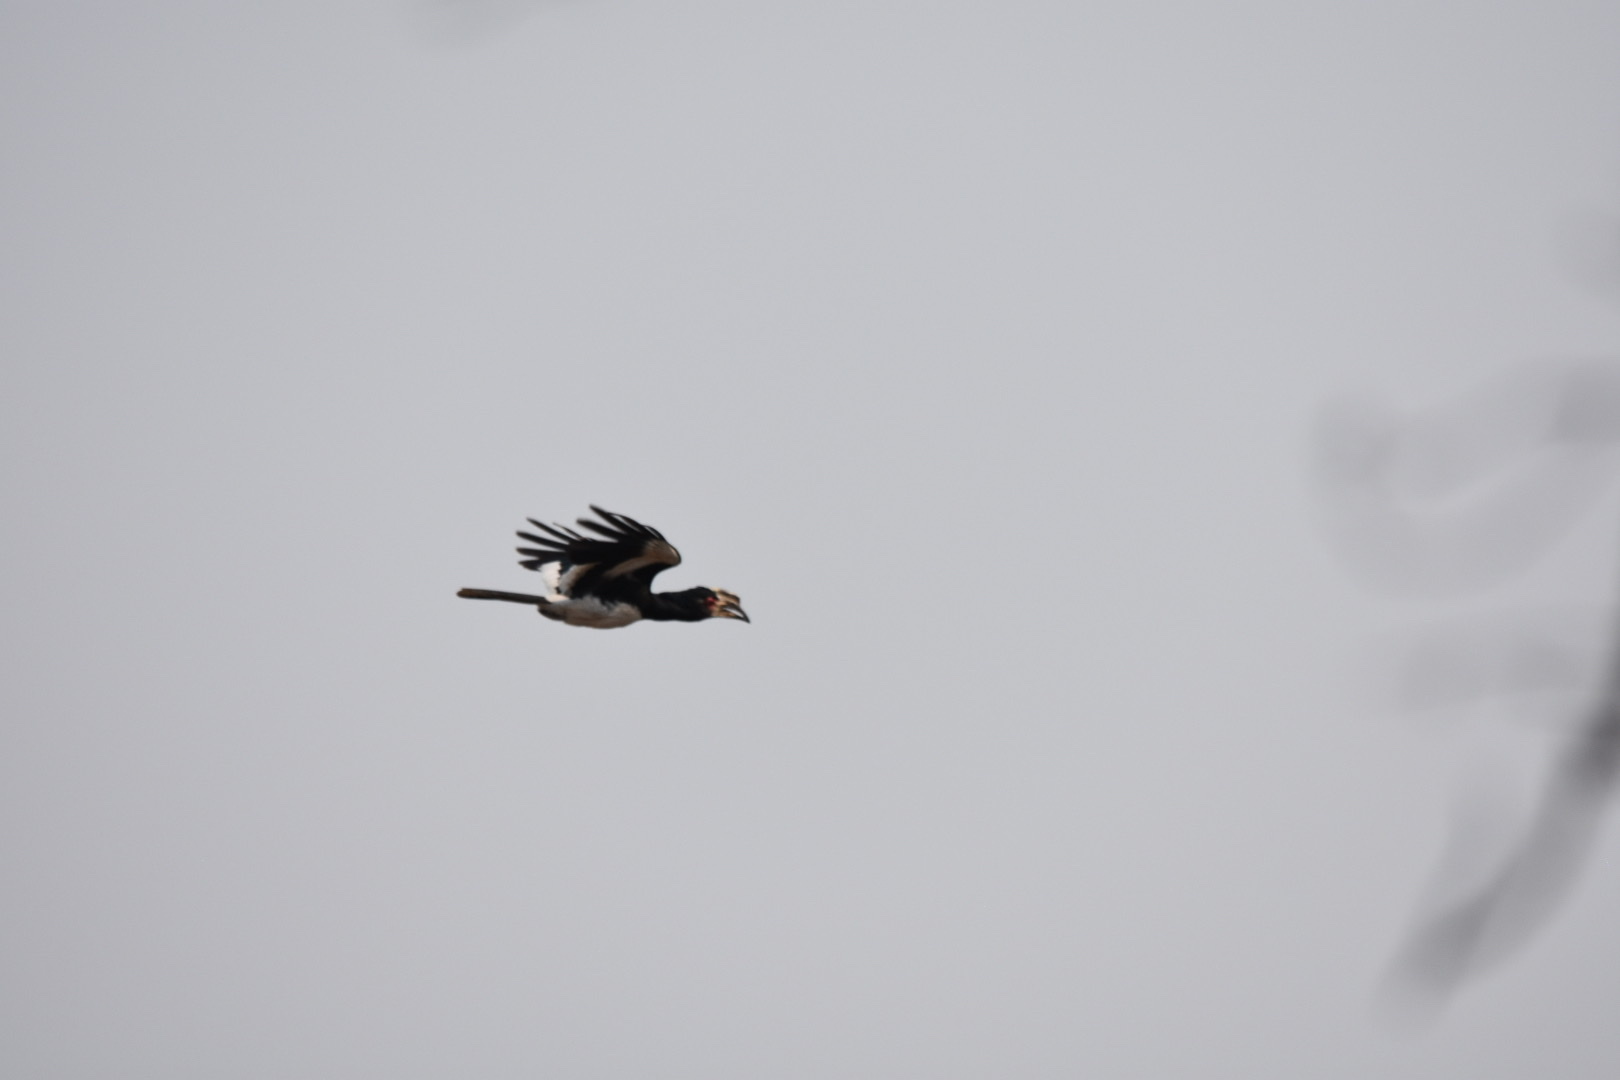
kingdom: Animalia
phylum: Chordata
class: Aves
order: Bucerotiformes
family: Bucerotidae
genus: Bycanistes
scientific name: Bycanistes bucinator
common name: Trumpeter hornbill
